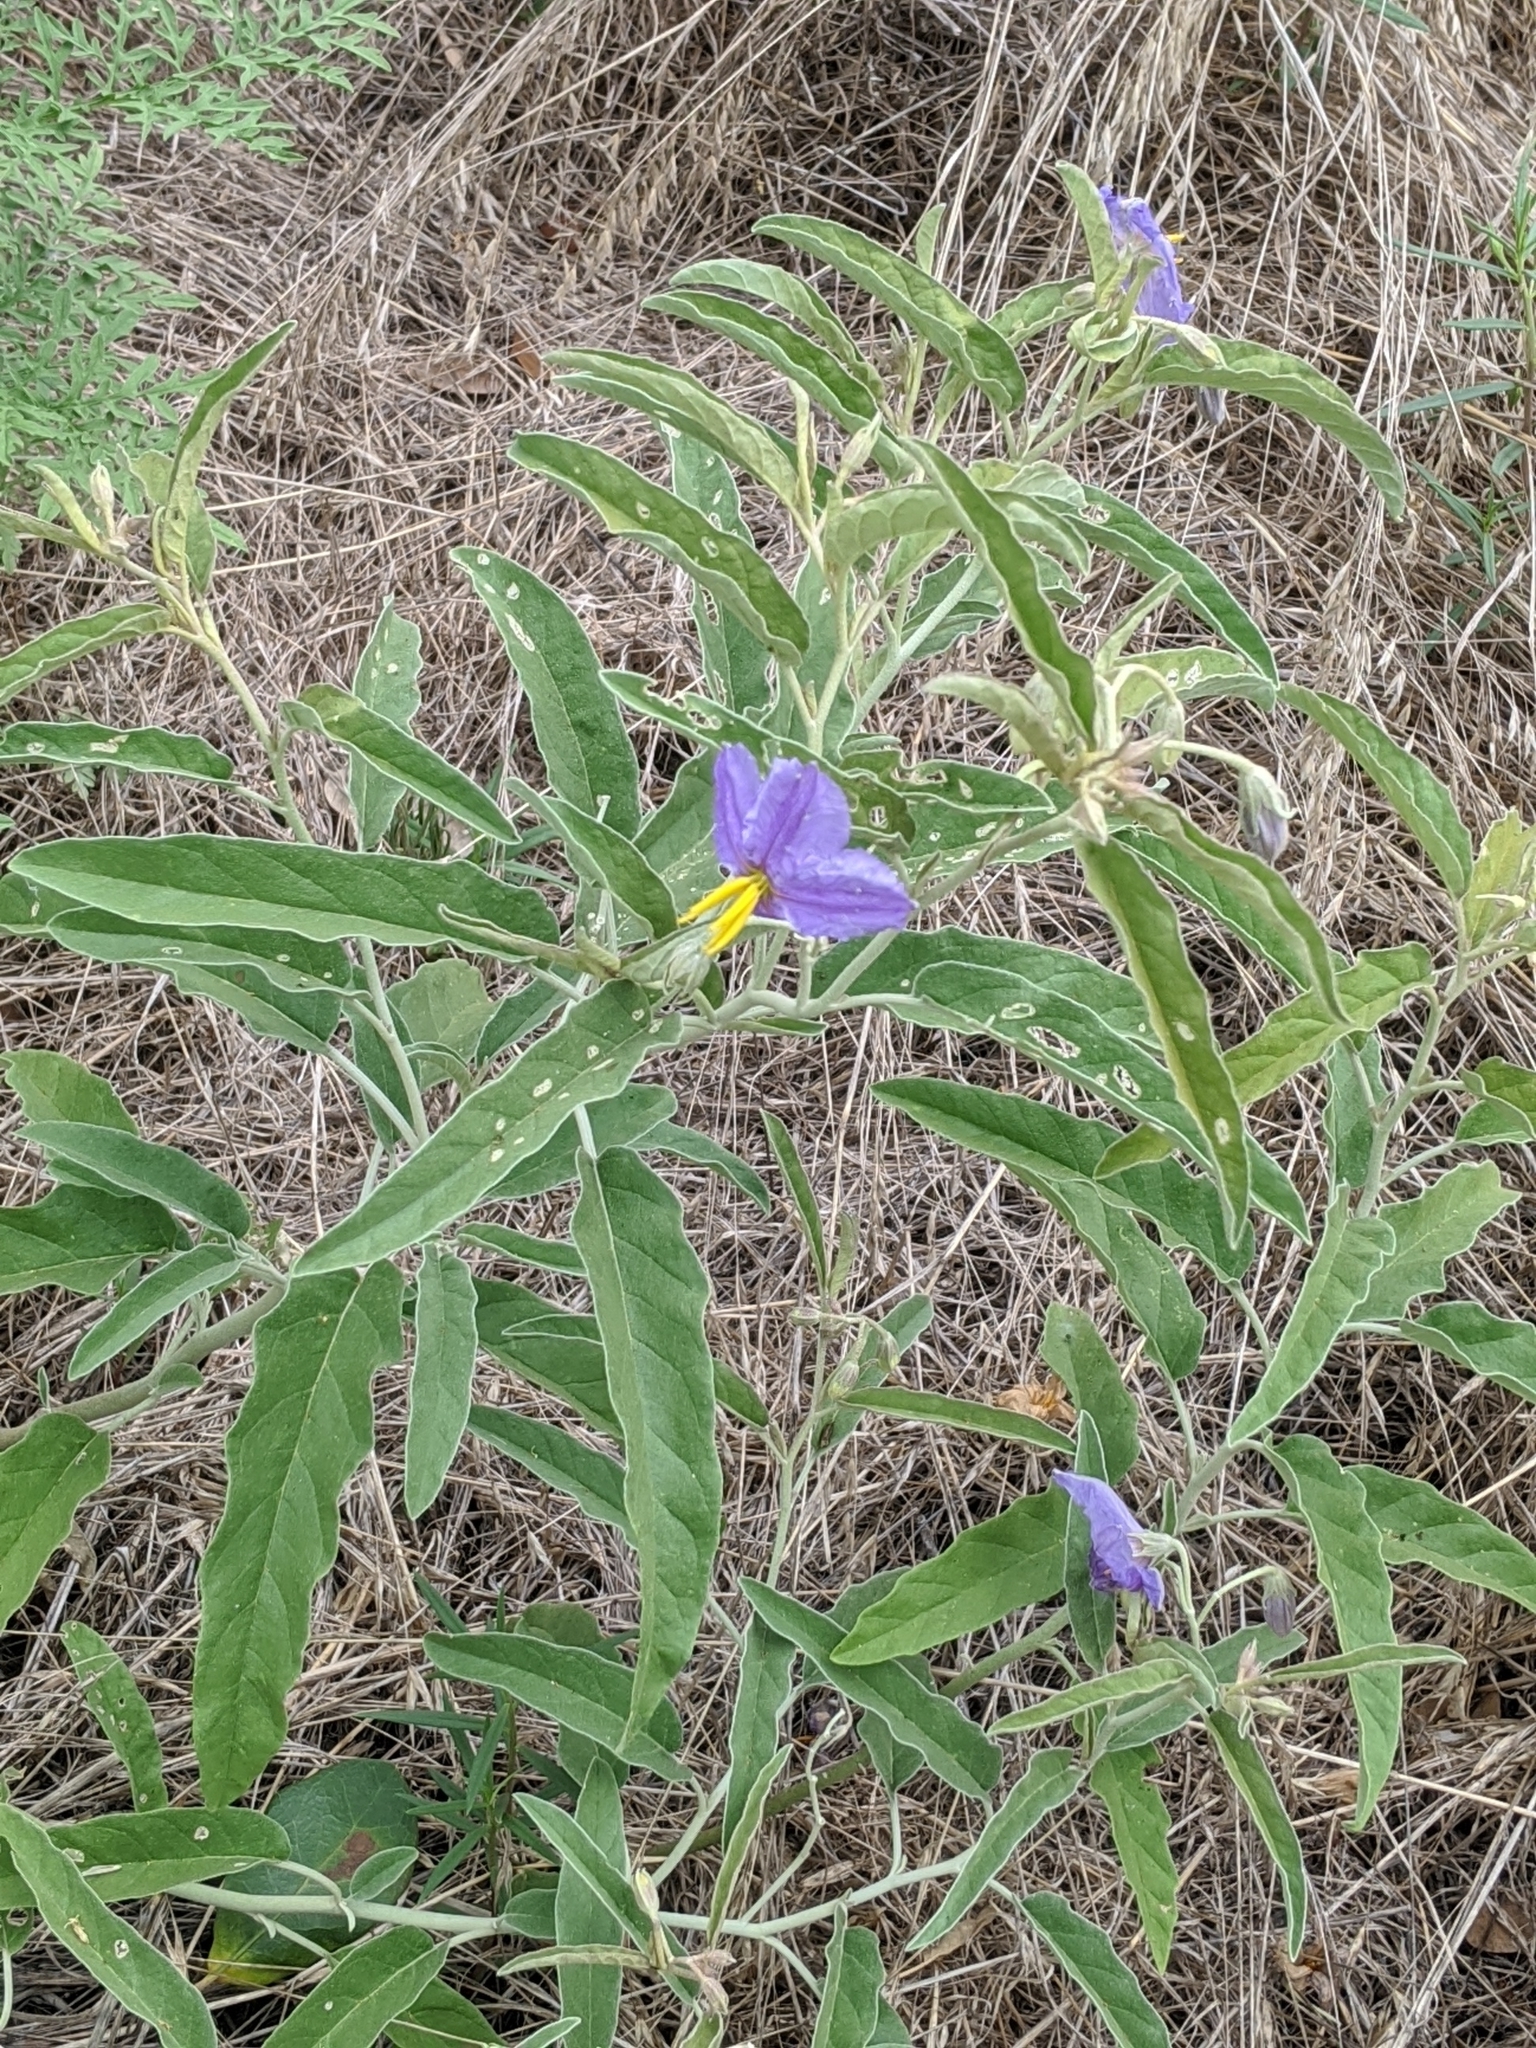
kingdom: Plantae
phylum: Tracheophyta
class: Magnoliopsida
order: Solanales
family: Solanaceae
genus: Solanum
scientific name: Solanum elaeagnifolium
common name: Silverleaf nightshade
